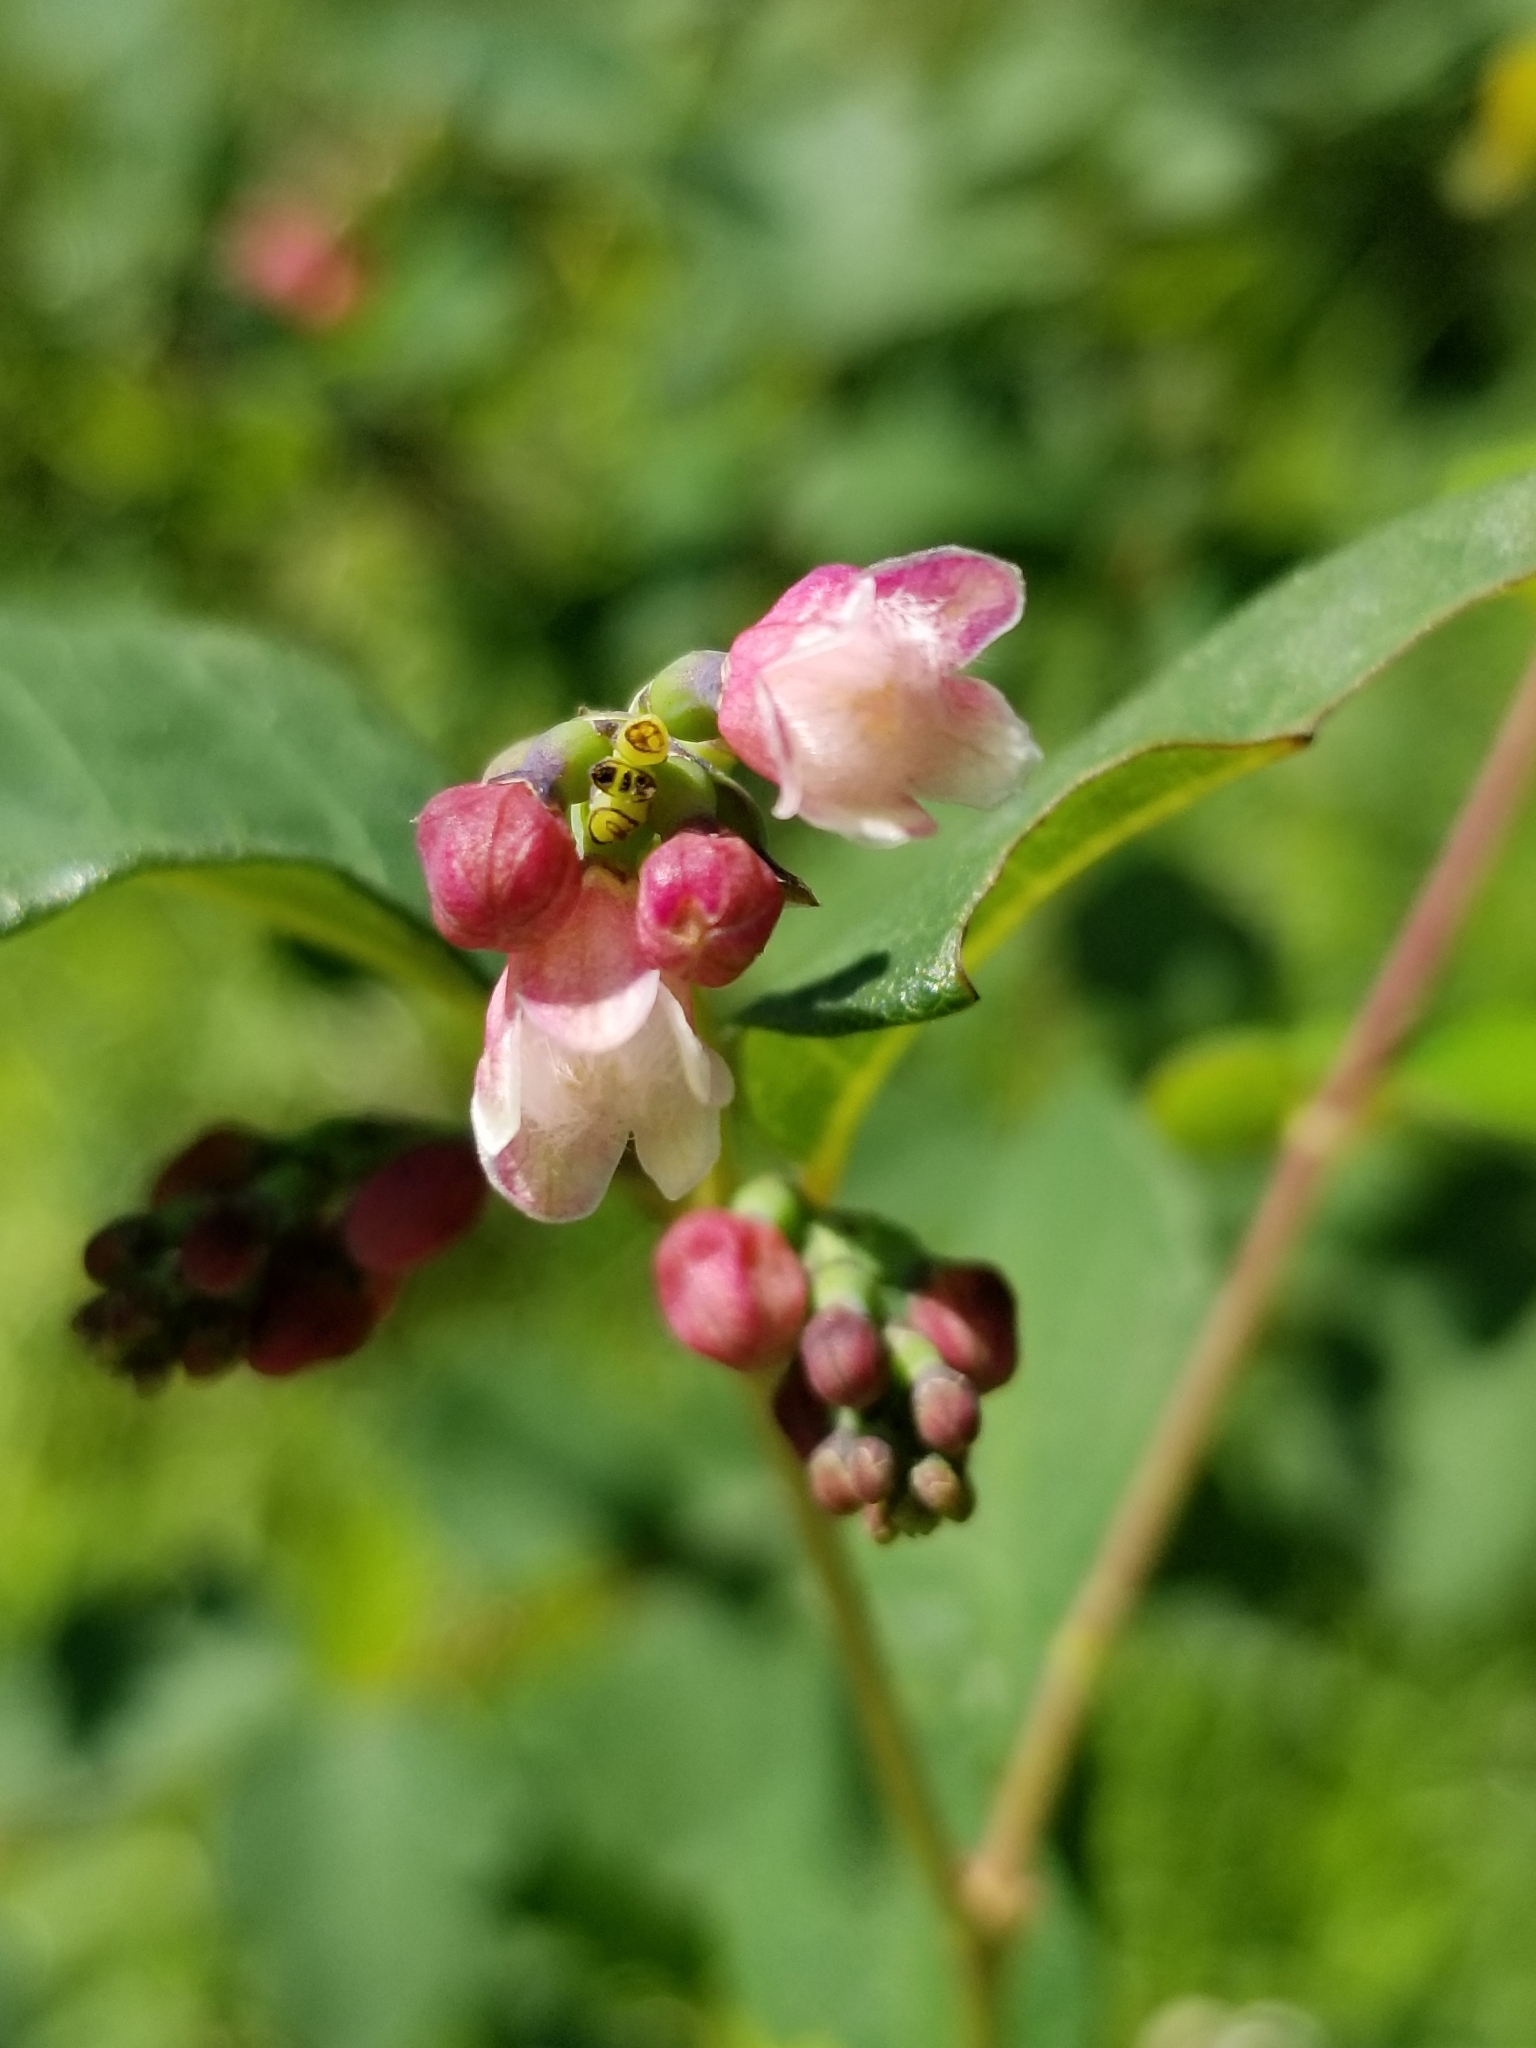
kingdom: Plantae
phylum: Tracheophyta
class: Magnoliopsida
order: Dipsacales
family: Caprifoliaceae
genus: Symphoricarpos
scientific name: Symphoricarpos albus
